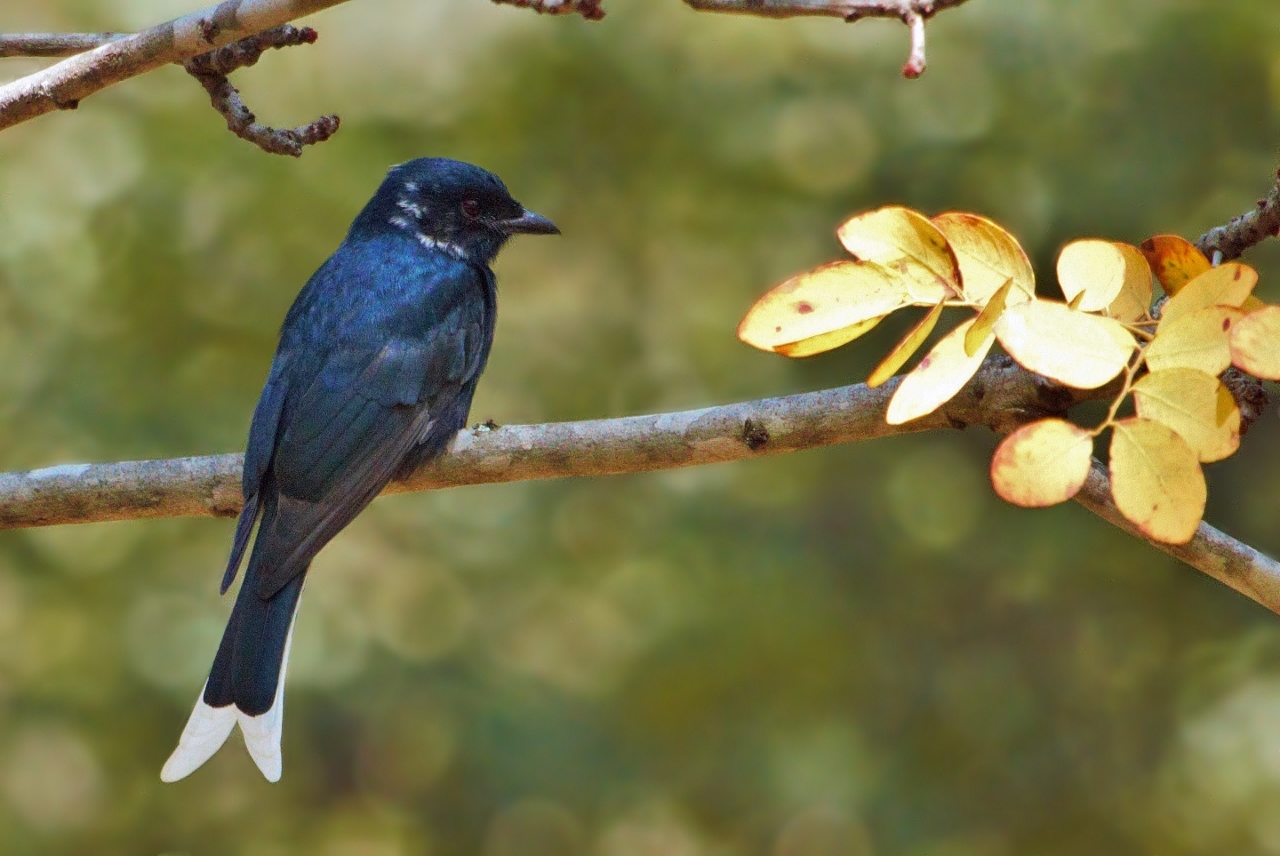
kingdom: Animalia
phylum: Chordata
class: Aves
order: Passeriformes
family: Dicruridae
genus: Dicrurus
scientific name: Dicrurus adsimilis
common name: Fork-tailed drongo
